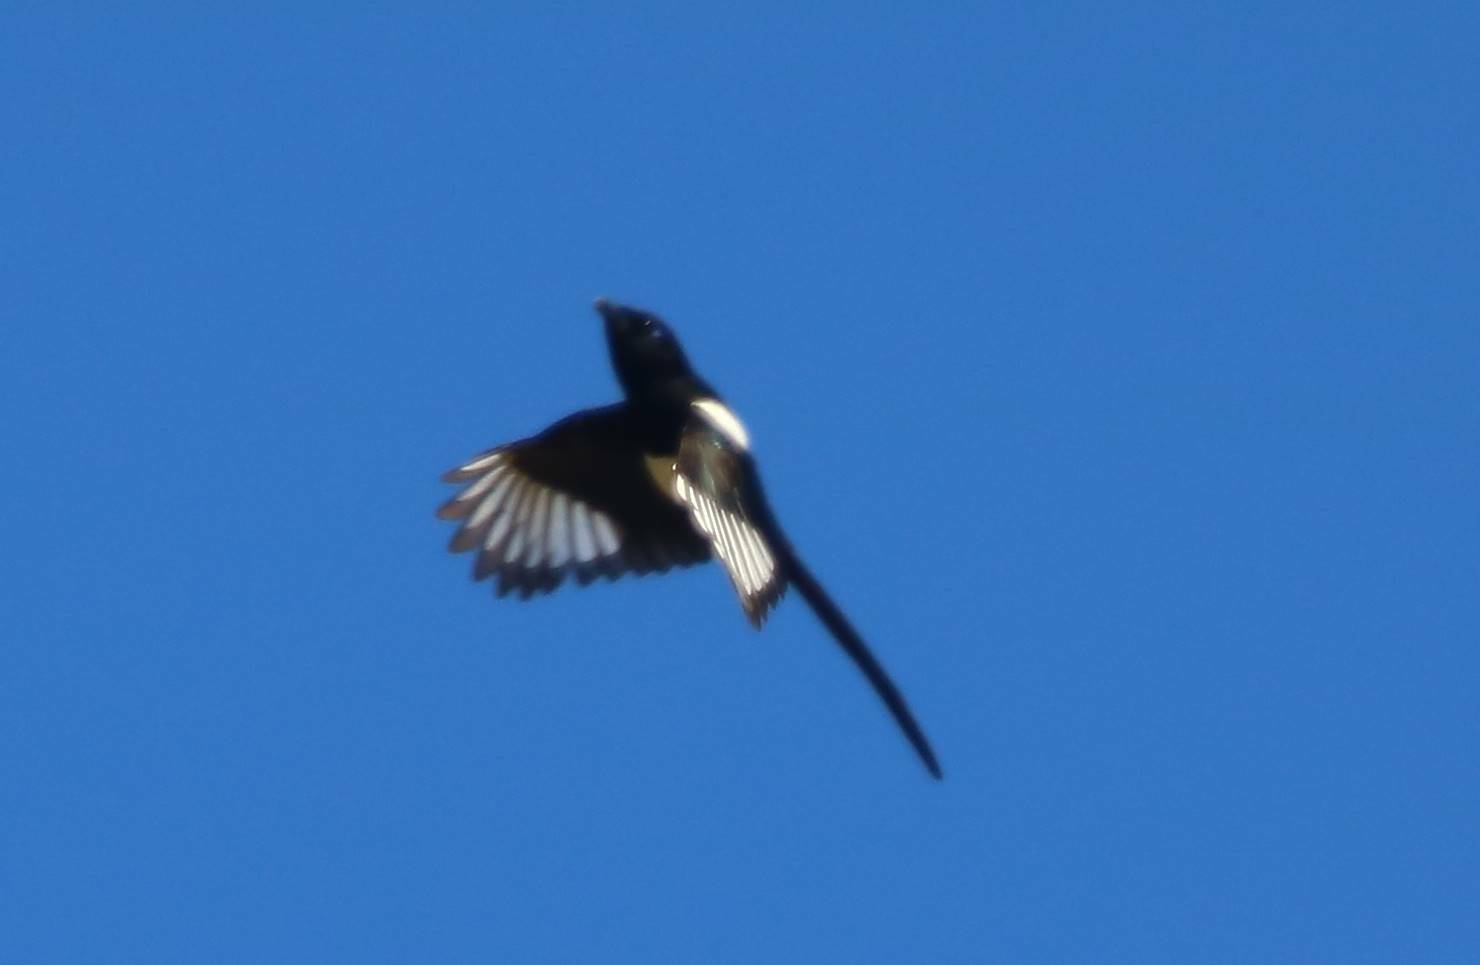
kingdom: Animalia
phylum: Chordata
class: Aves
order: Passeriformes
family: Corvidae
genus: Pica
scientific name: Pica mauritanica
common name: Maghreb magpie
